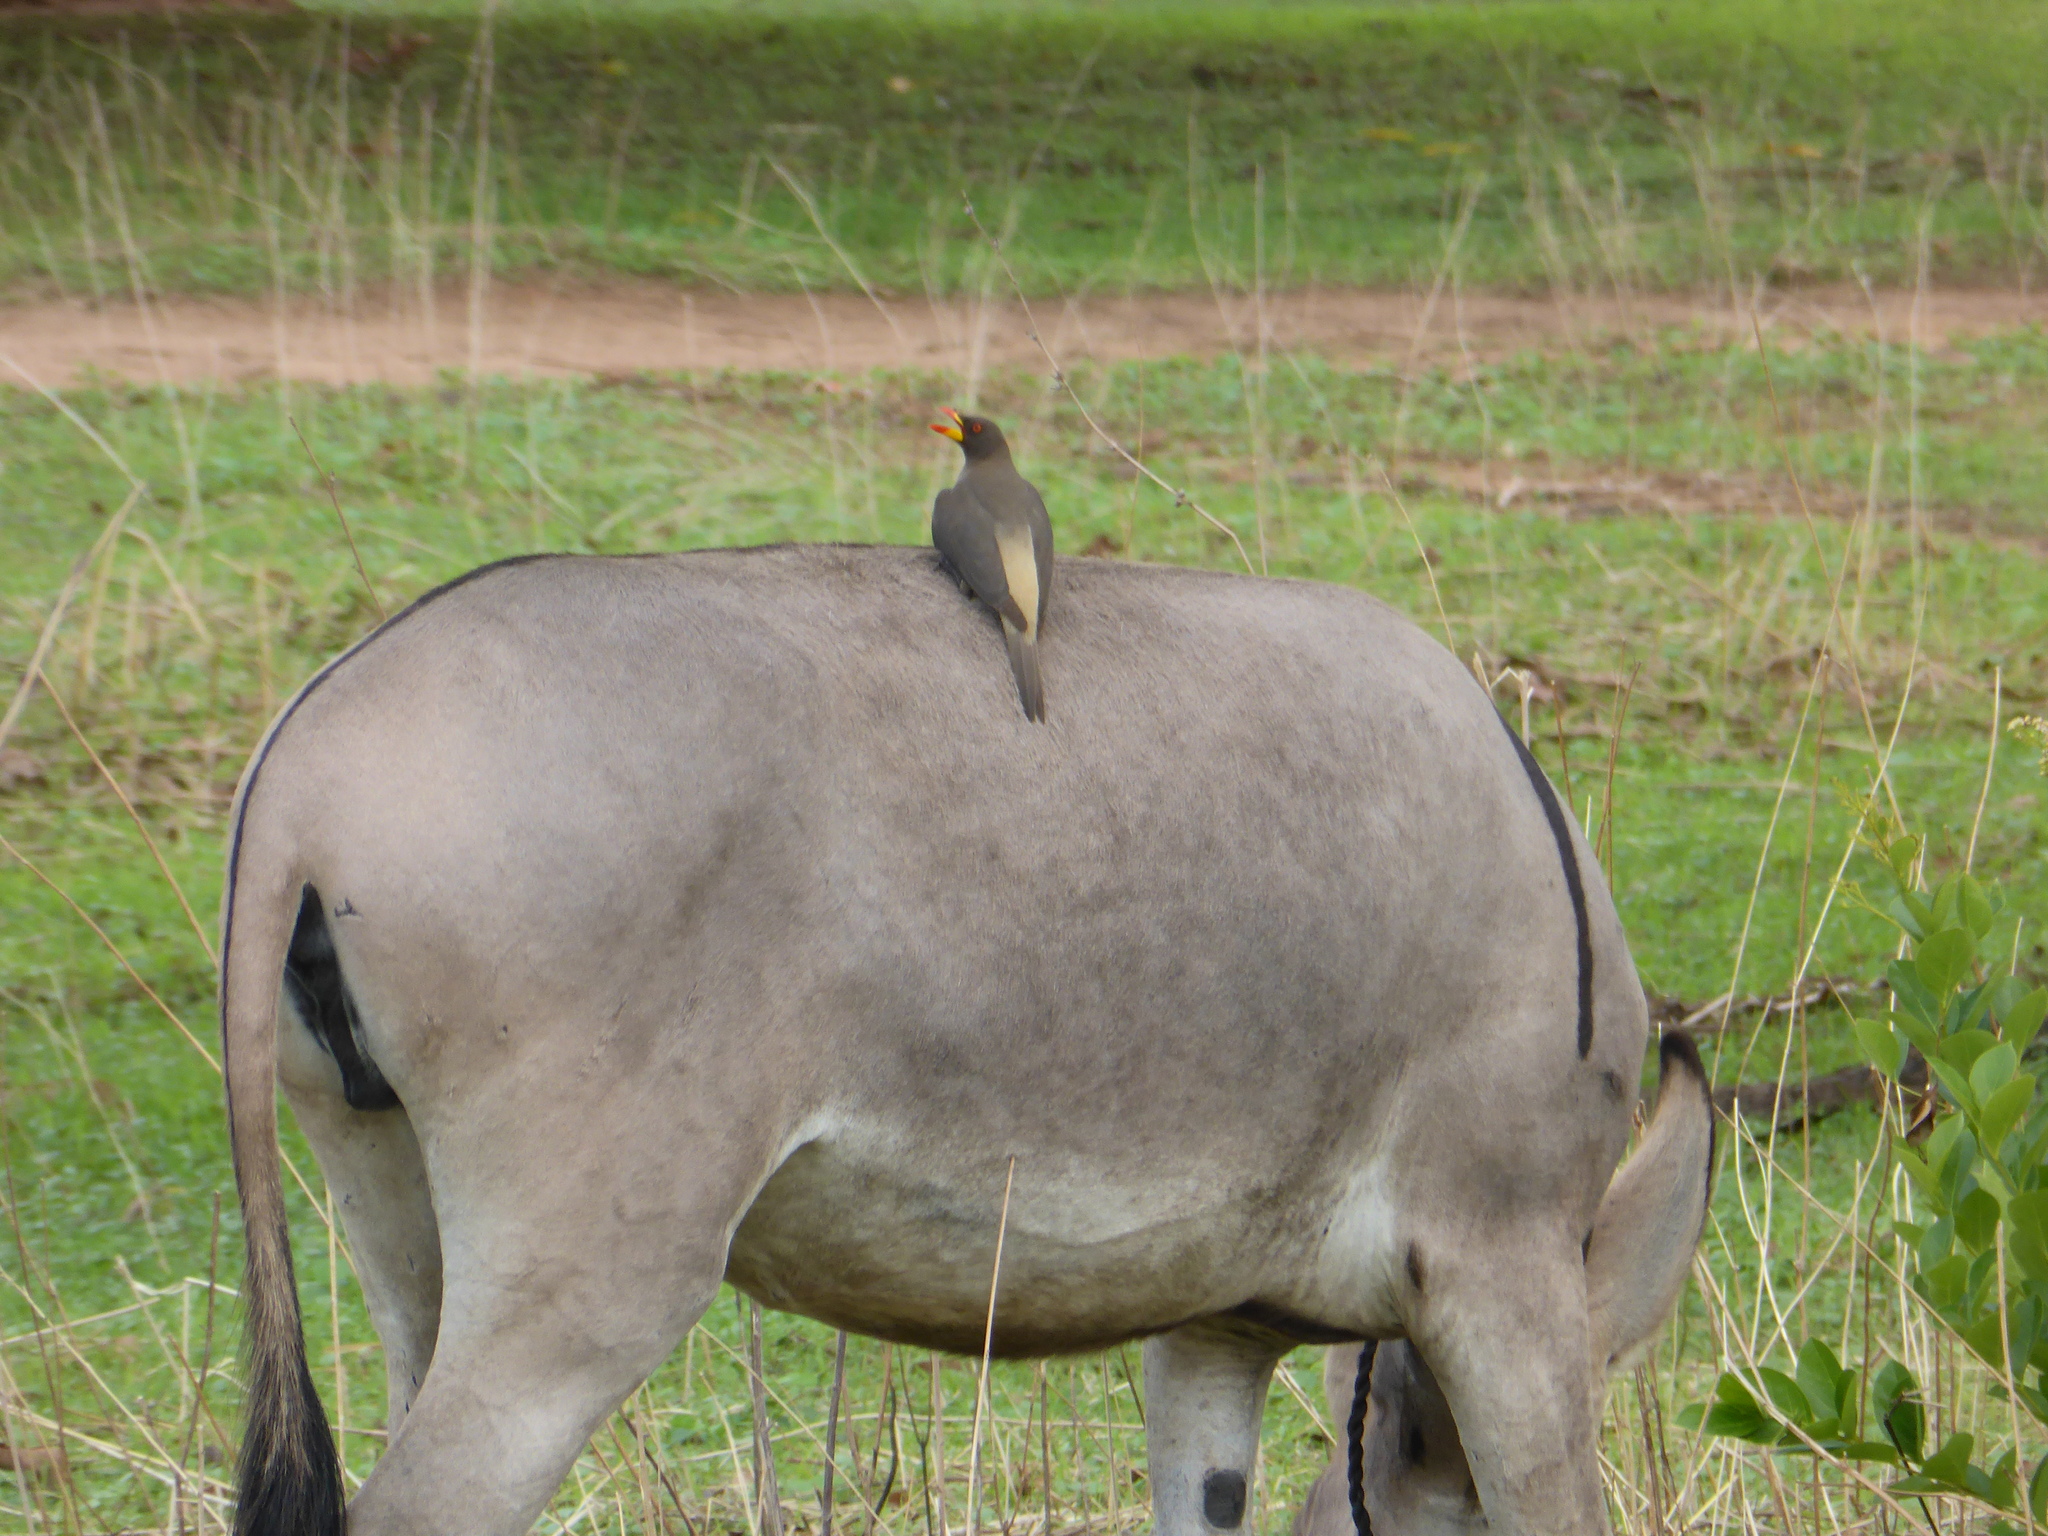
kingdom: Animalia
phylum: Chordata
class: Aves
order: Passeriformes
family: Buphagidae
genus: Buphagus
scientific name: Buphagus africanus
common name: Yellow-billed oxpecker
